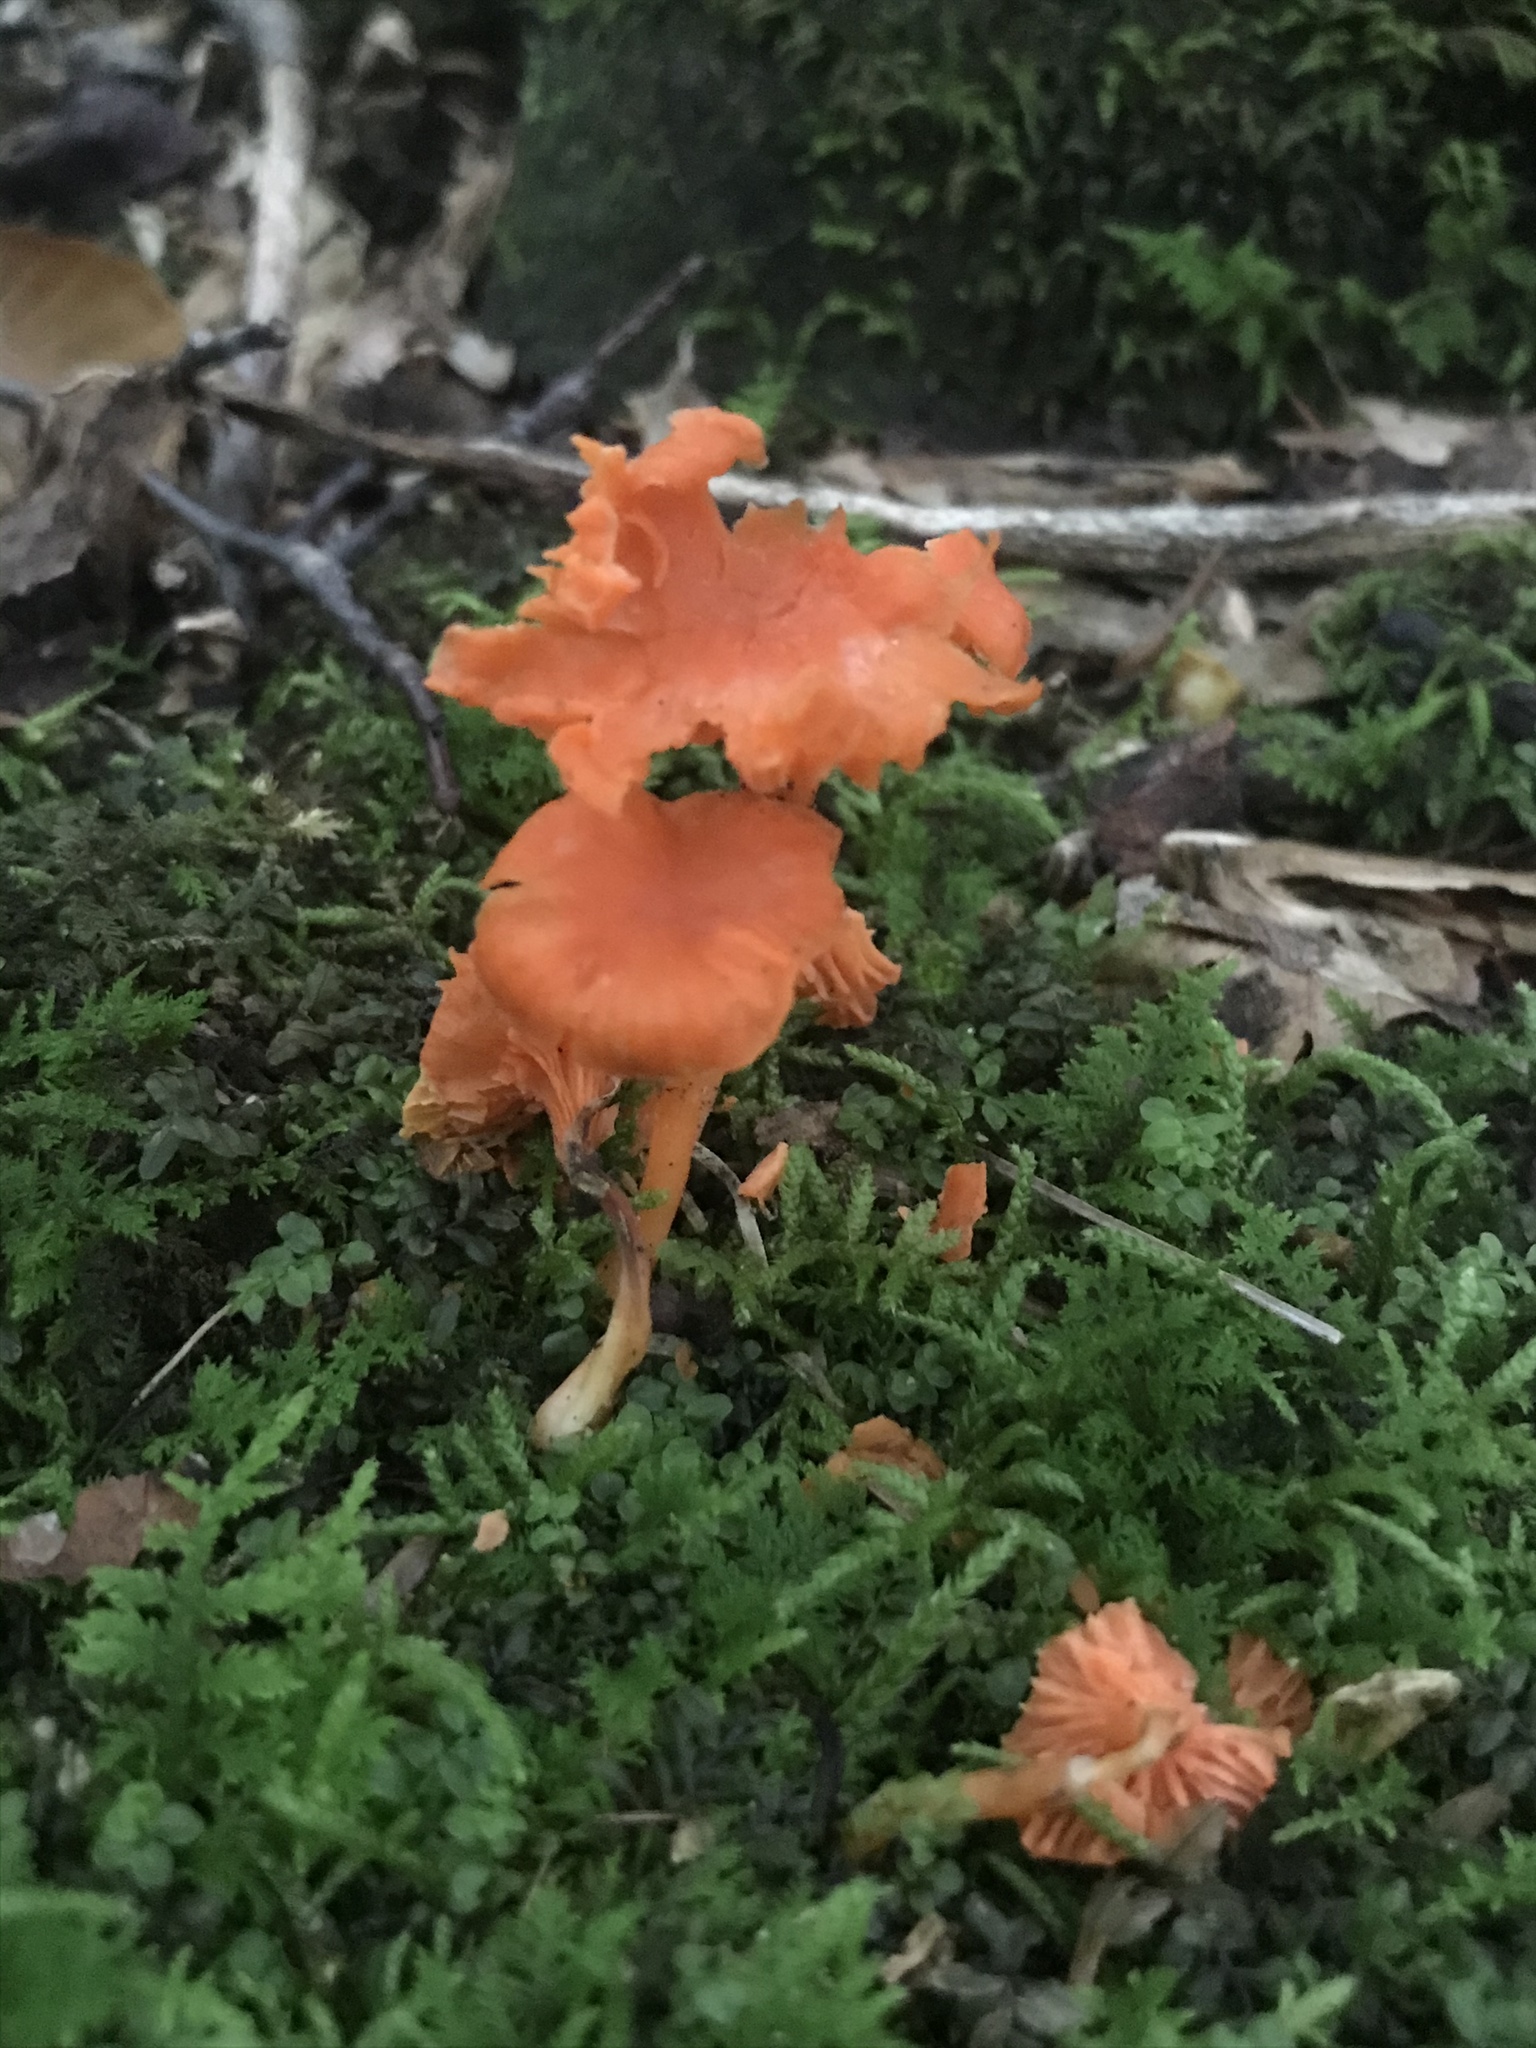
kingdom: Fungi
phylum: Basidiomycota
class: Agaricomycetes
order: Cantharellales
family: Hydnaceae
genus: Cantharellus
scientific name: Cantharellus cinnabarinus
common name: Cinnabar chanterelle
